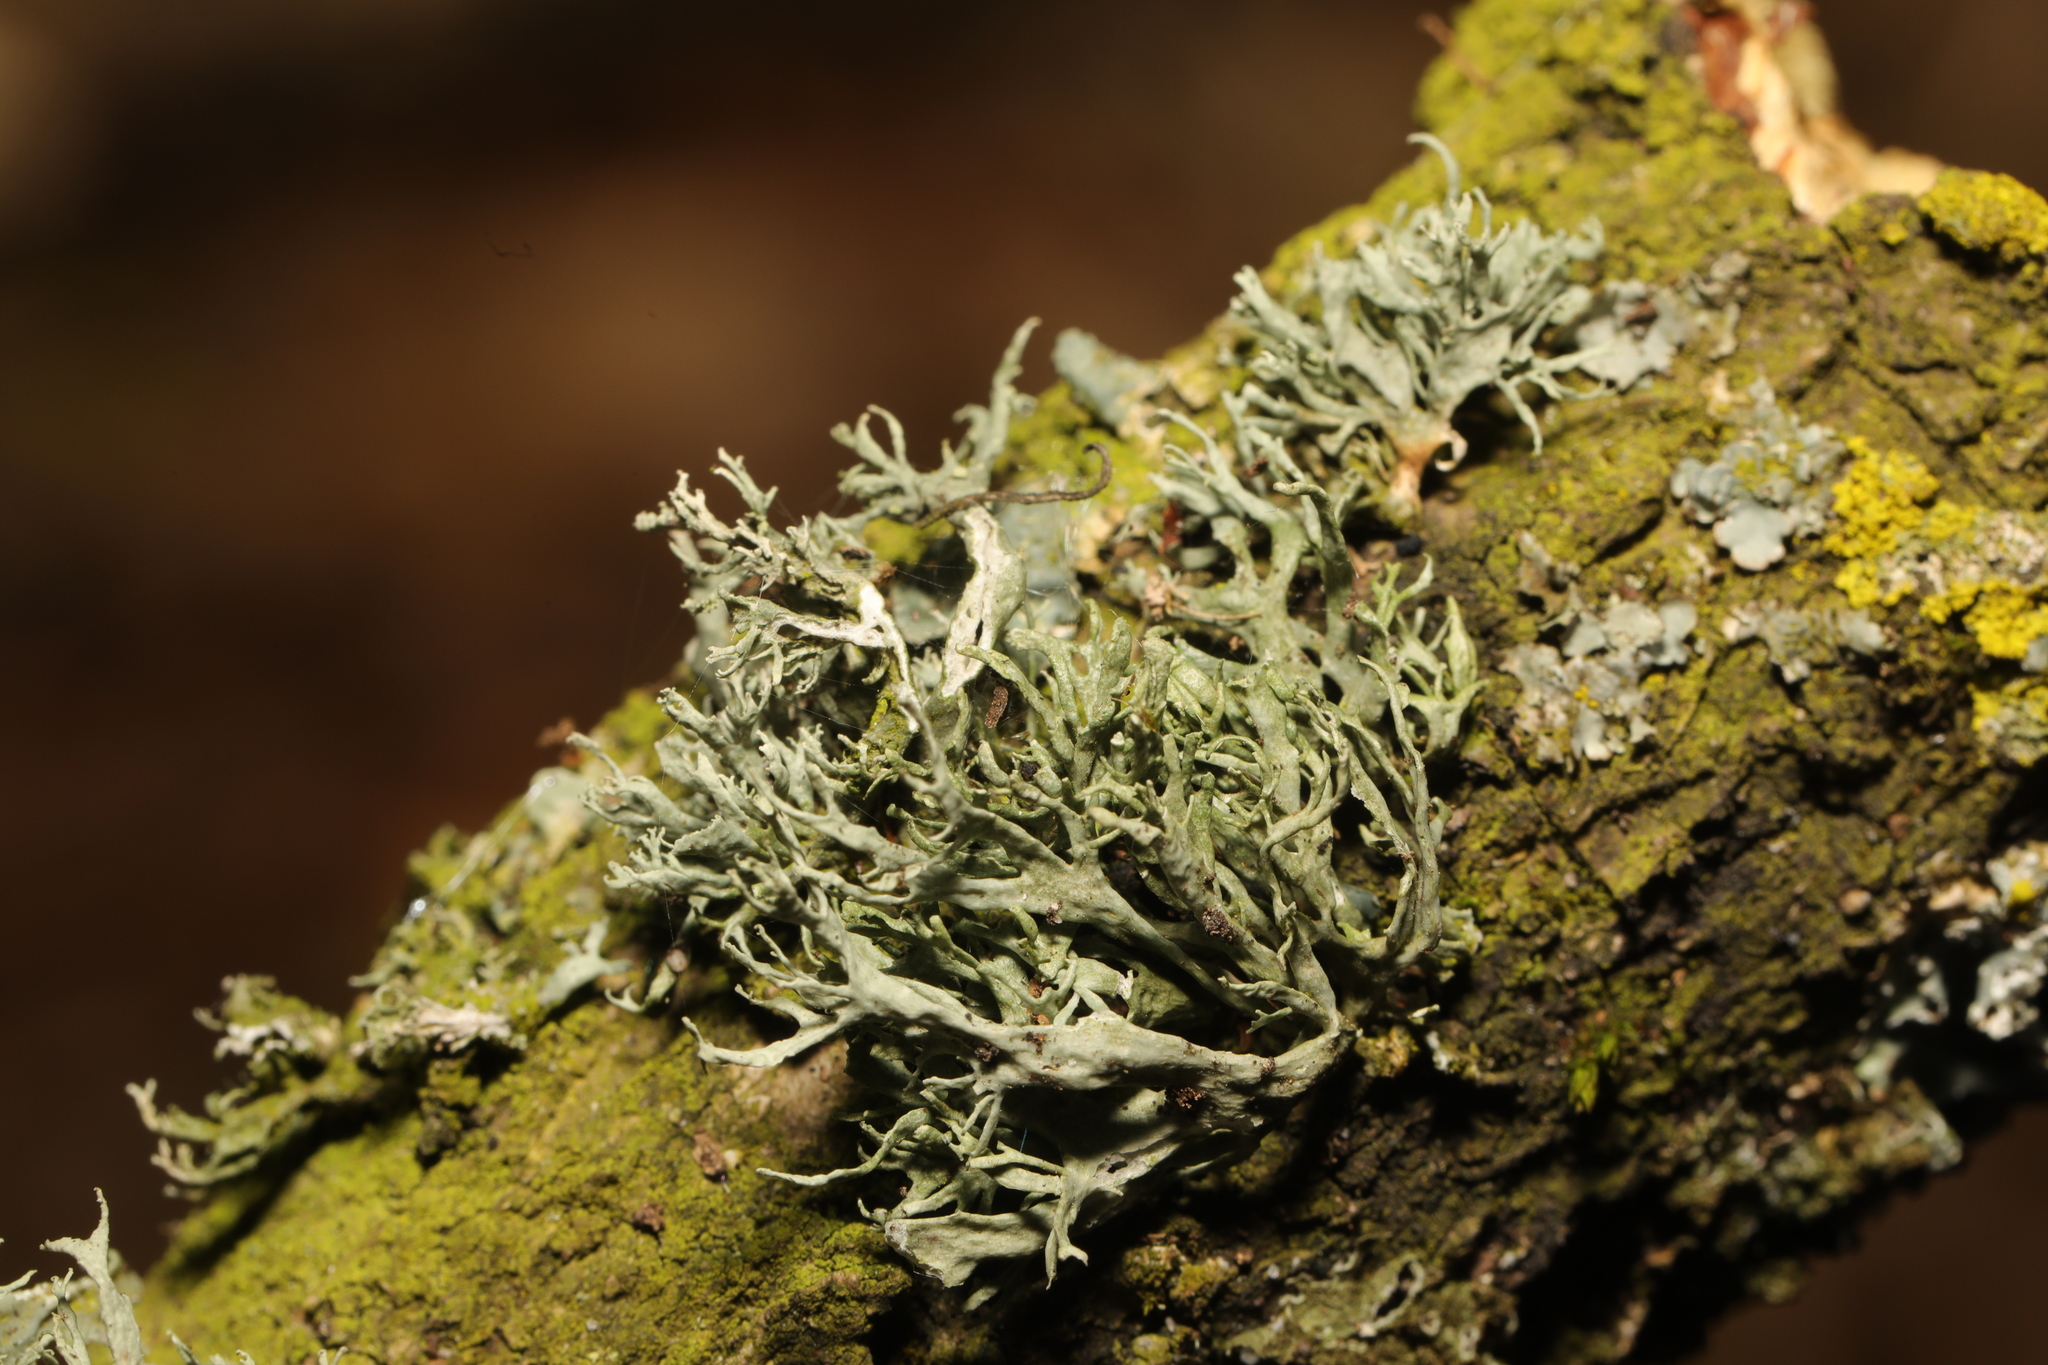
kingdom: Fungi
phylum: Ascomycota
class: Lecanoromycetes
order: Lecanorales
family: Ramalinaceae
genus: Ramalina
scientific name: Ramalina farinacea
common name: Farinose cartilage lichen
